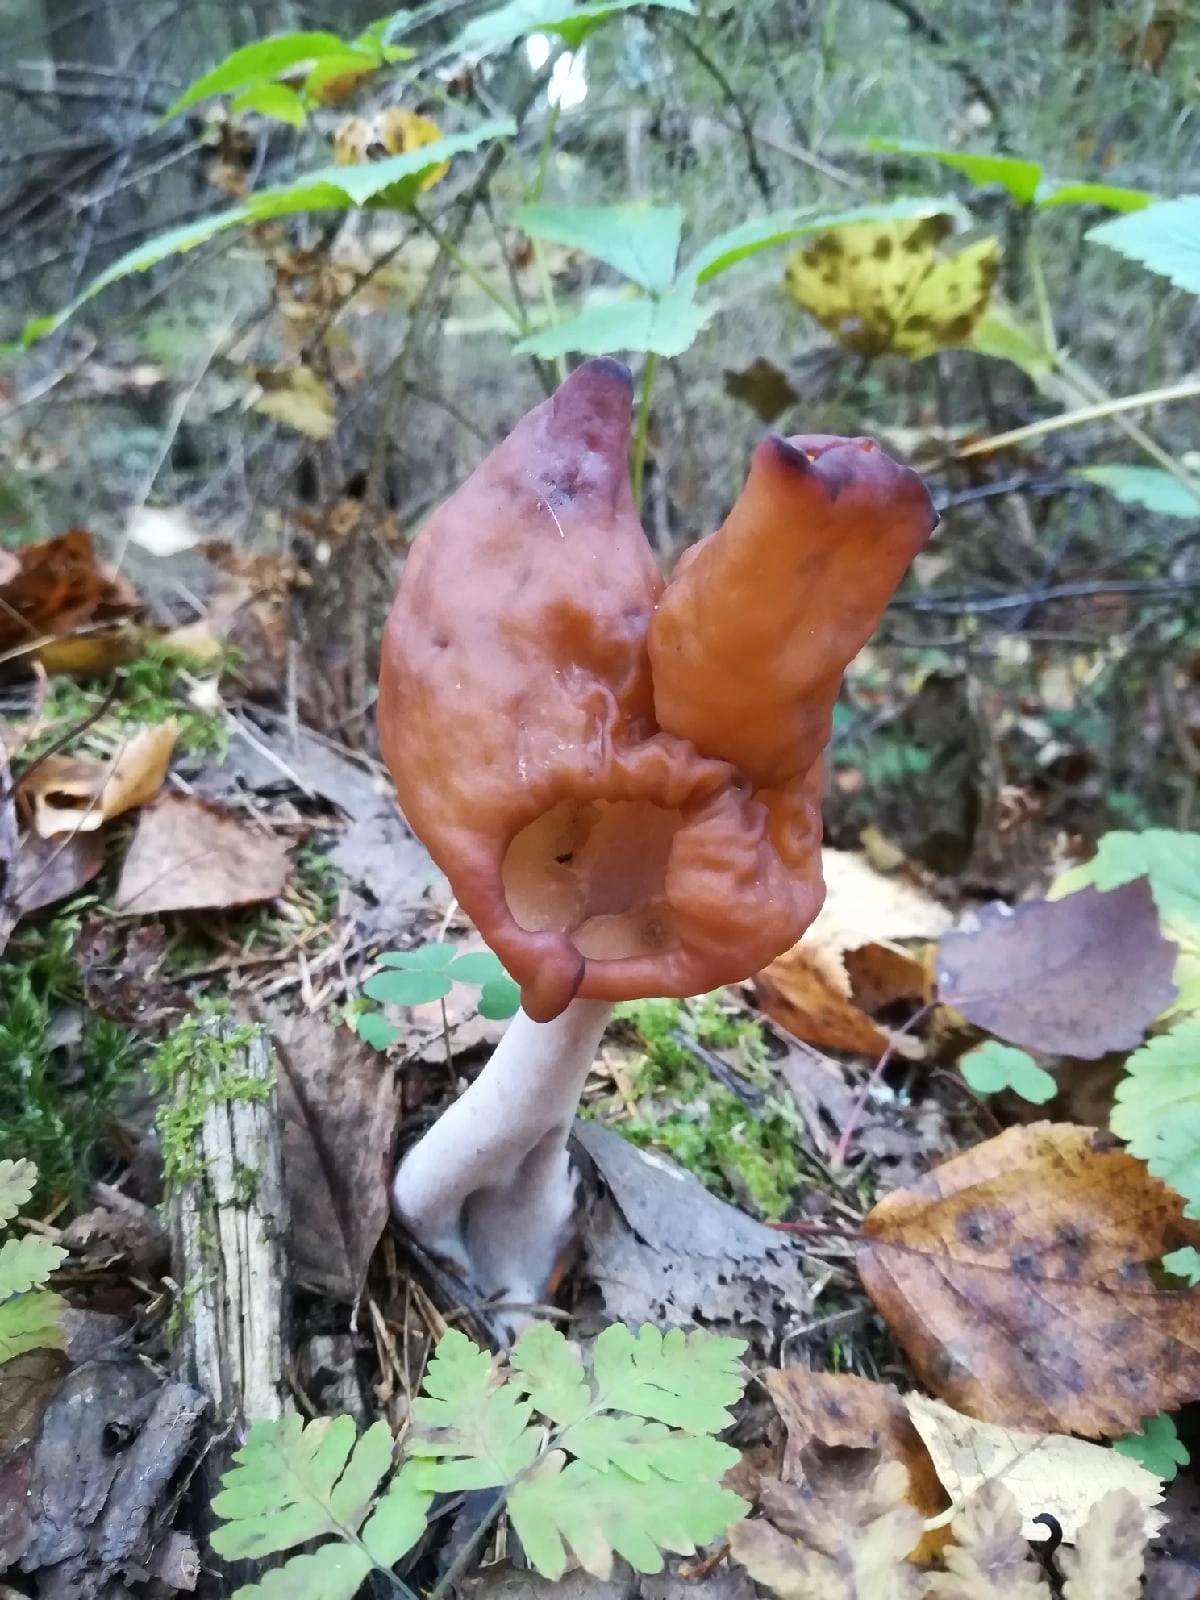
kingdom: Fungi
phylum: Ascomycota
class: Pezizomycetes
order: Pezizales
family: Discinaceae
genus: Gyromitra
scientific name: Gyromitra infula
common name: Pouched false morel
